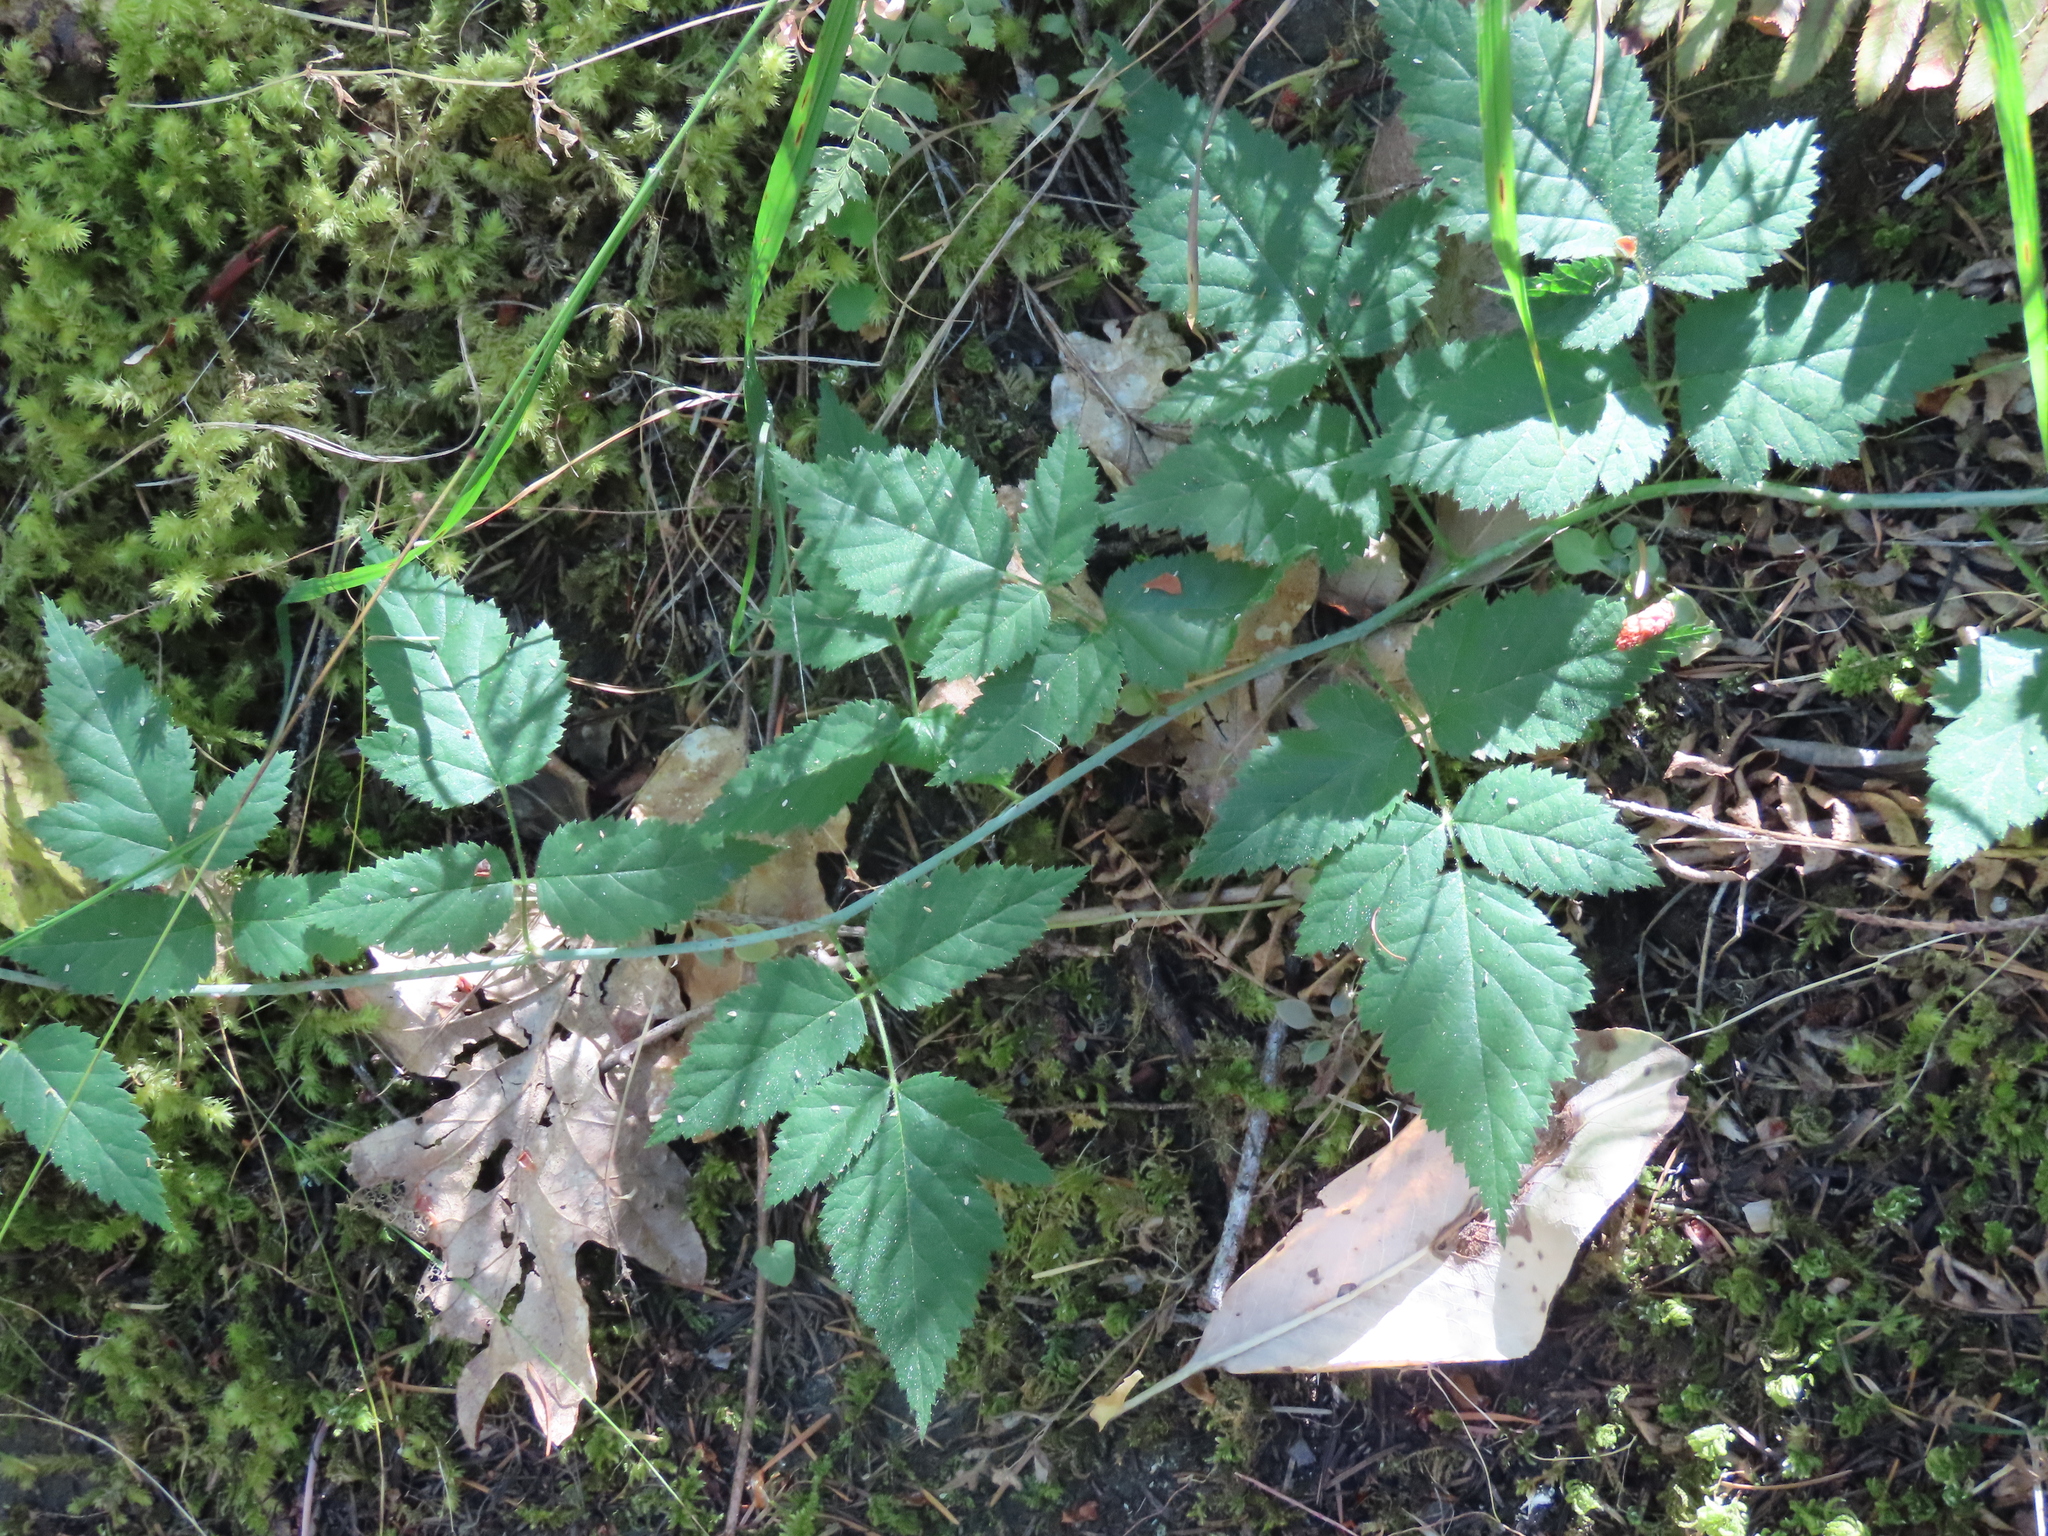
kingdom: Plantae
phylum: Tracheophyta
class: Magnoliopsida
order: Rosales
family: Rosaceae
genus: Rubus
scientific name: Rubus ursinus
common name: Pacific blackberry
